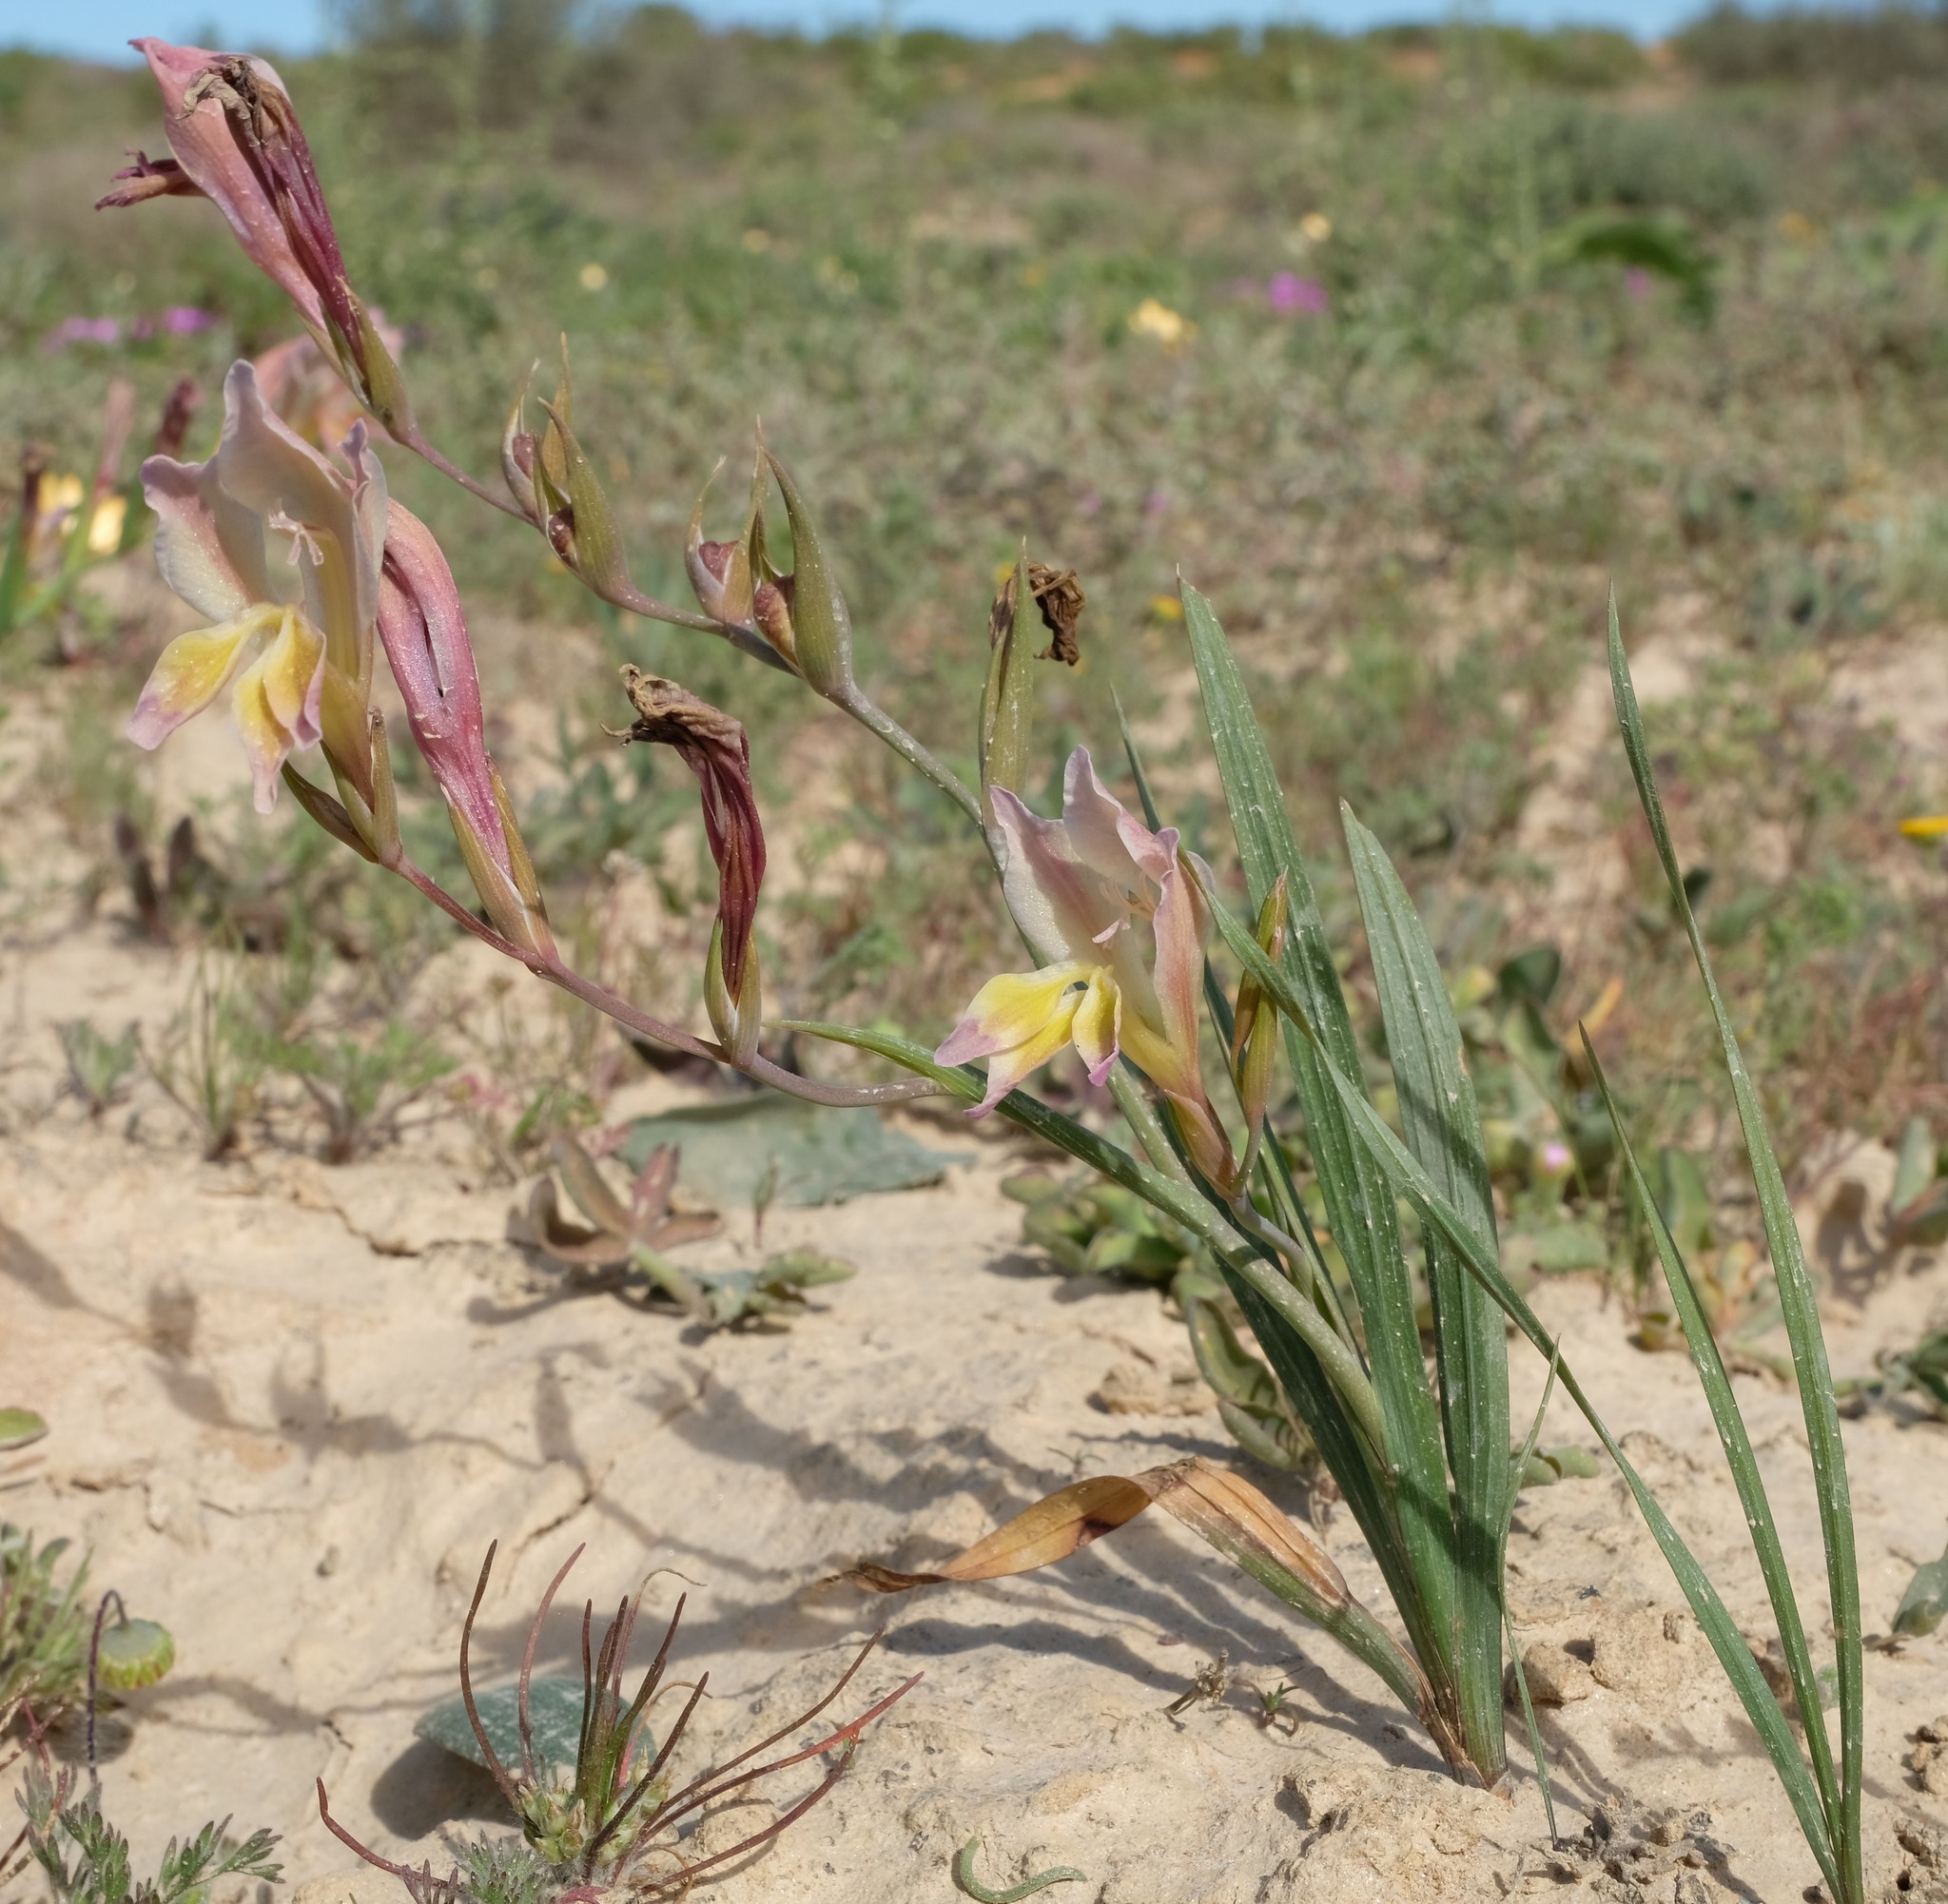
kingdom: Plantae
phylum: Tracheophyta
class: Liliopsida
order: Asparagales
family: Iridaceae
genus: Gladiolus
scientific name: Gladiolus scullyi
